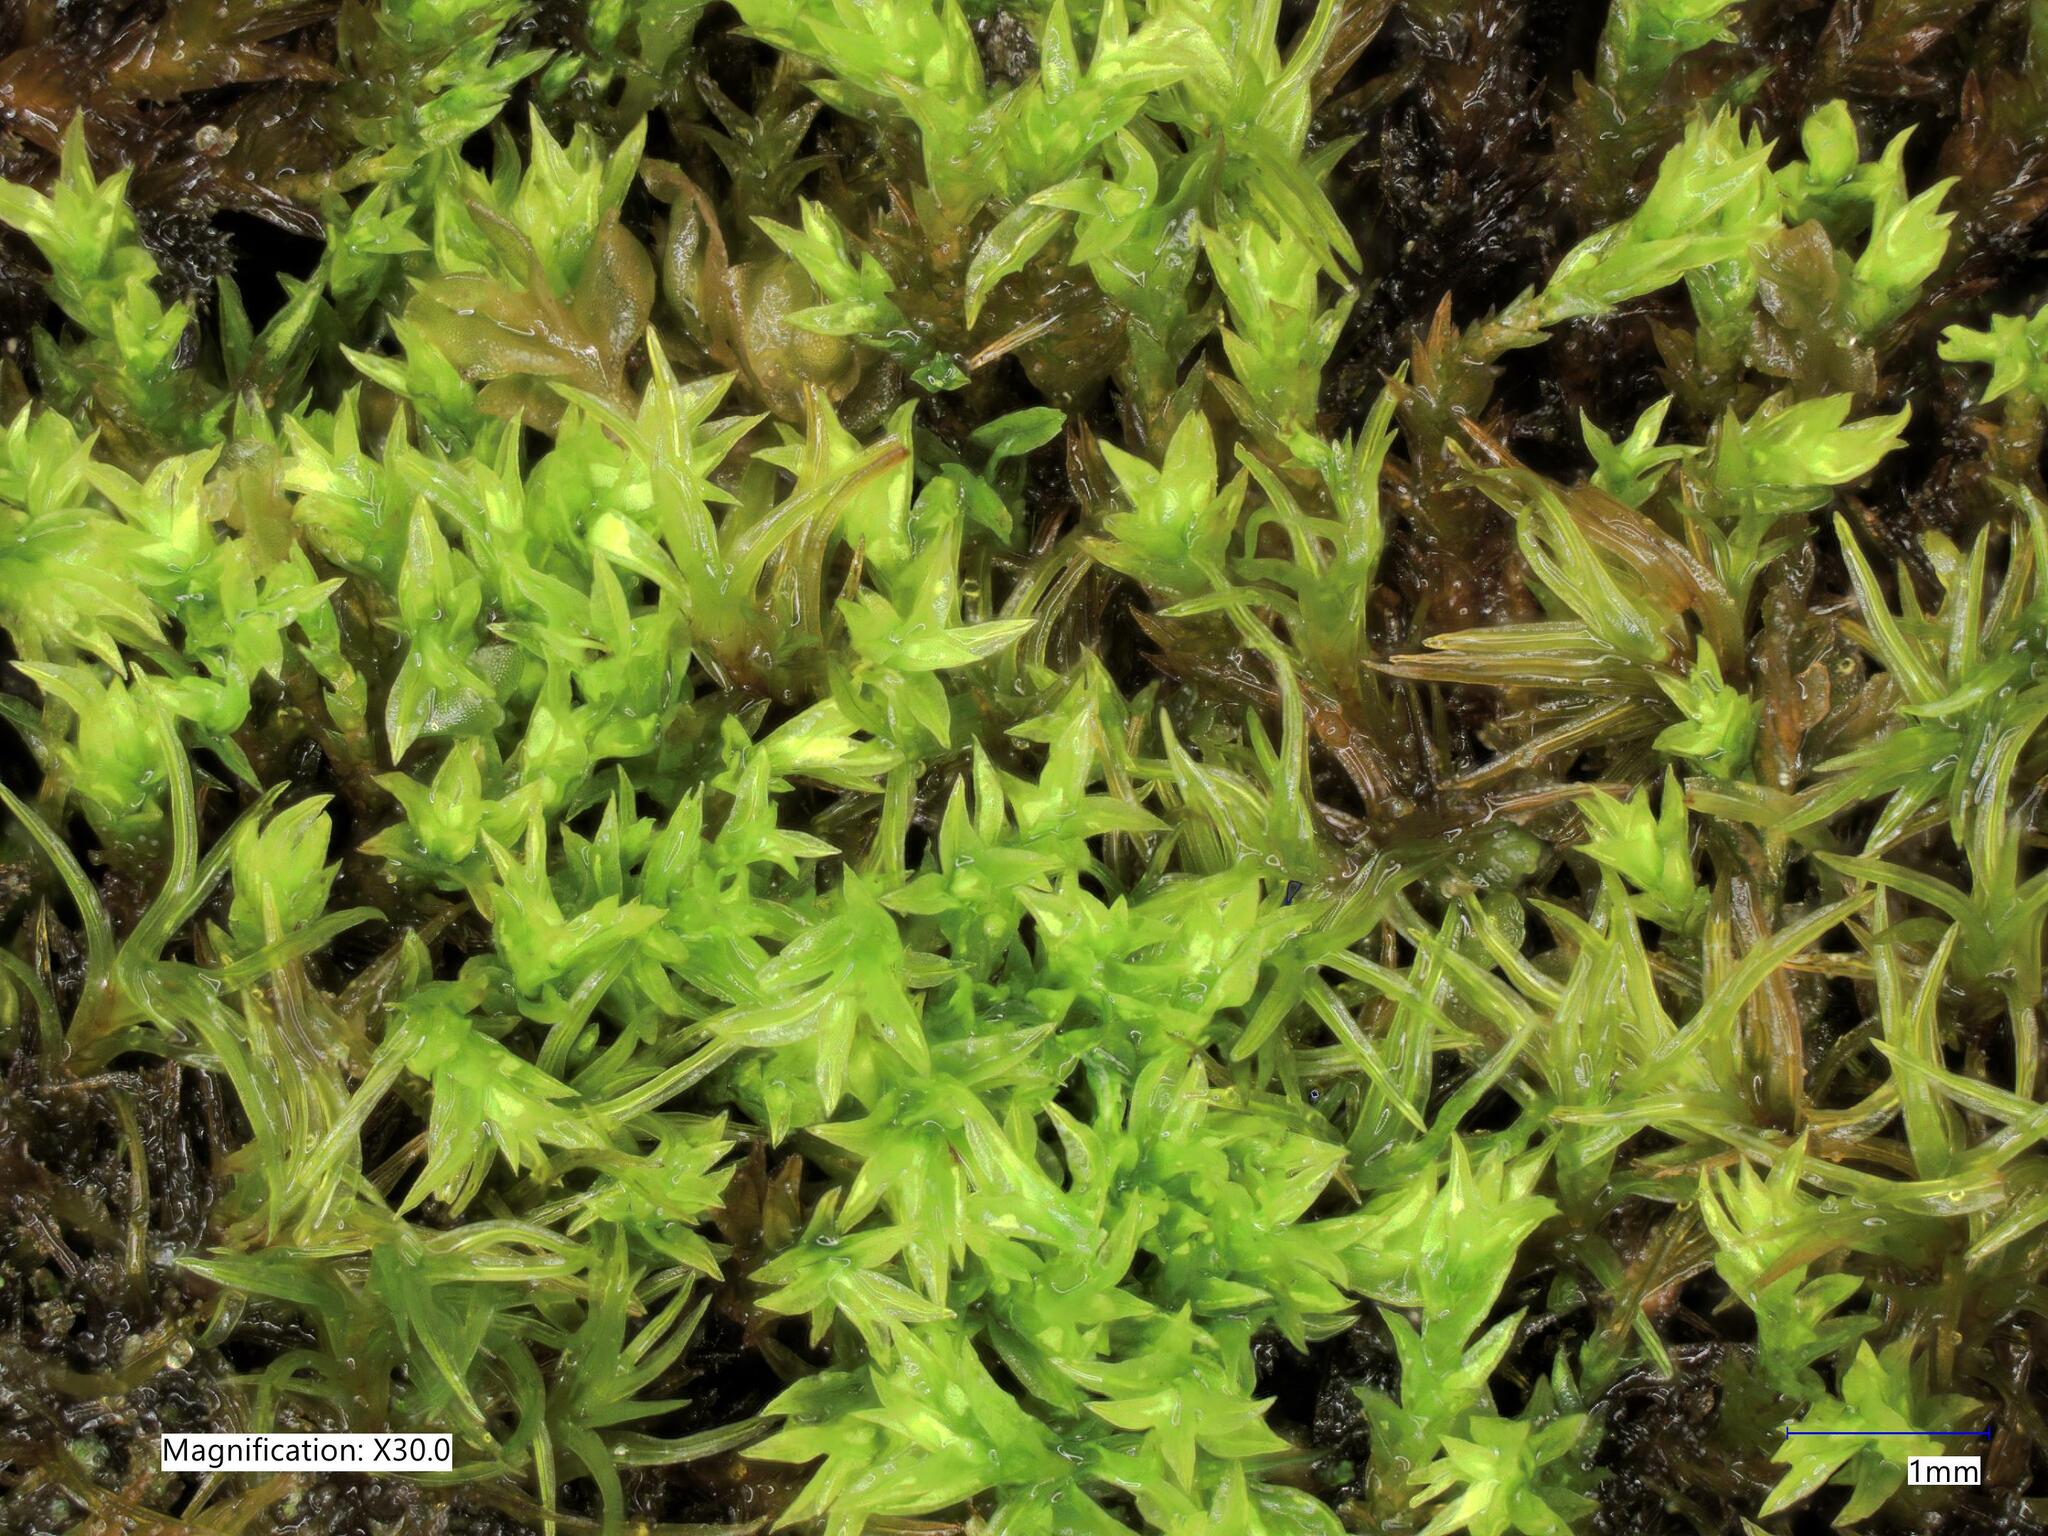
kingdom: Plantae
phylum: Bryophyta
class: Bryopsida
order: Pottiales
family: Pottiaceae
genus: Anoectangium
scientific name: Anoectangium aestivum
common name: Summer-moss
